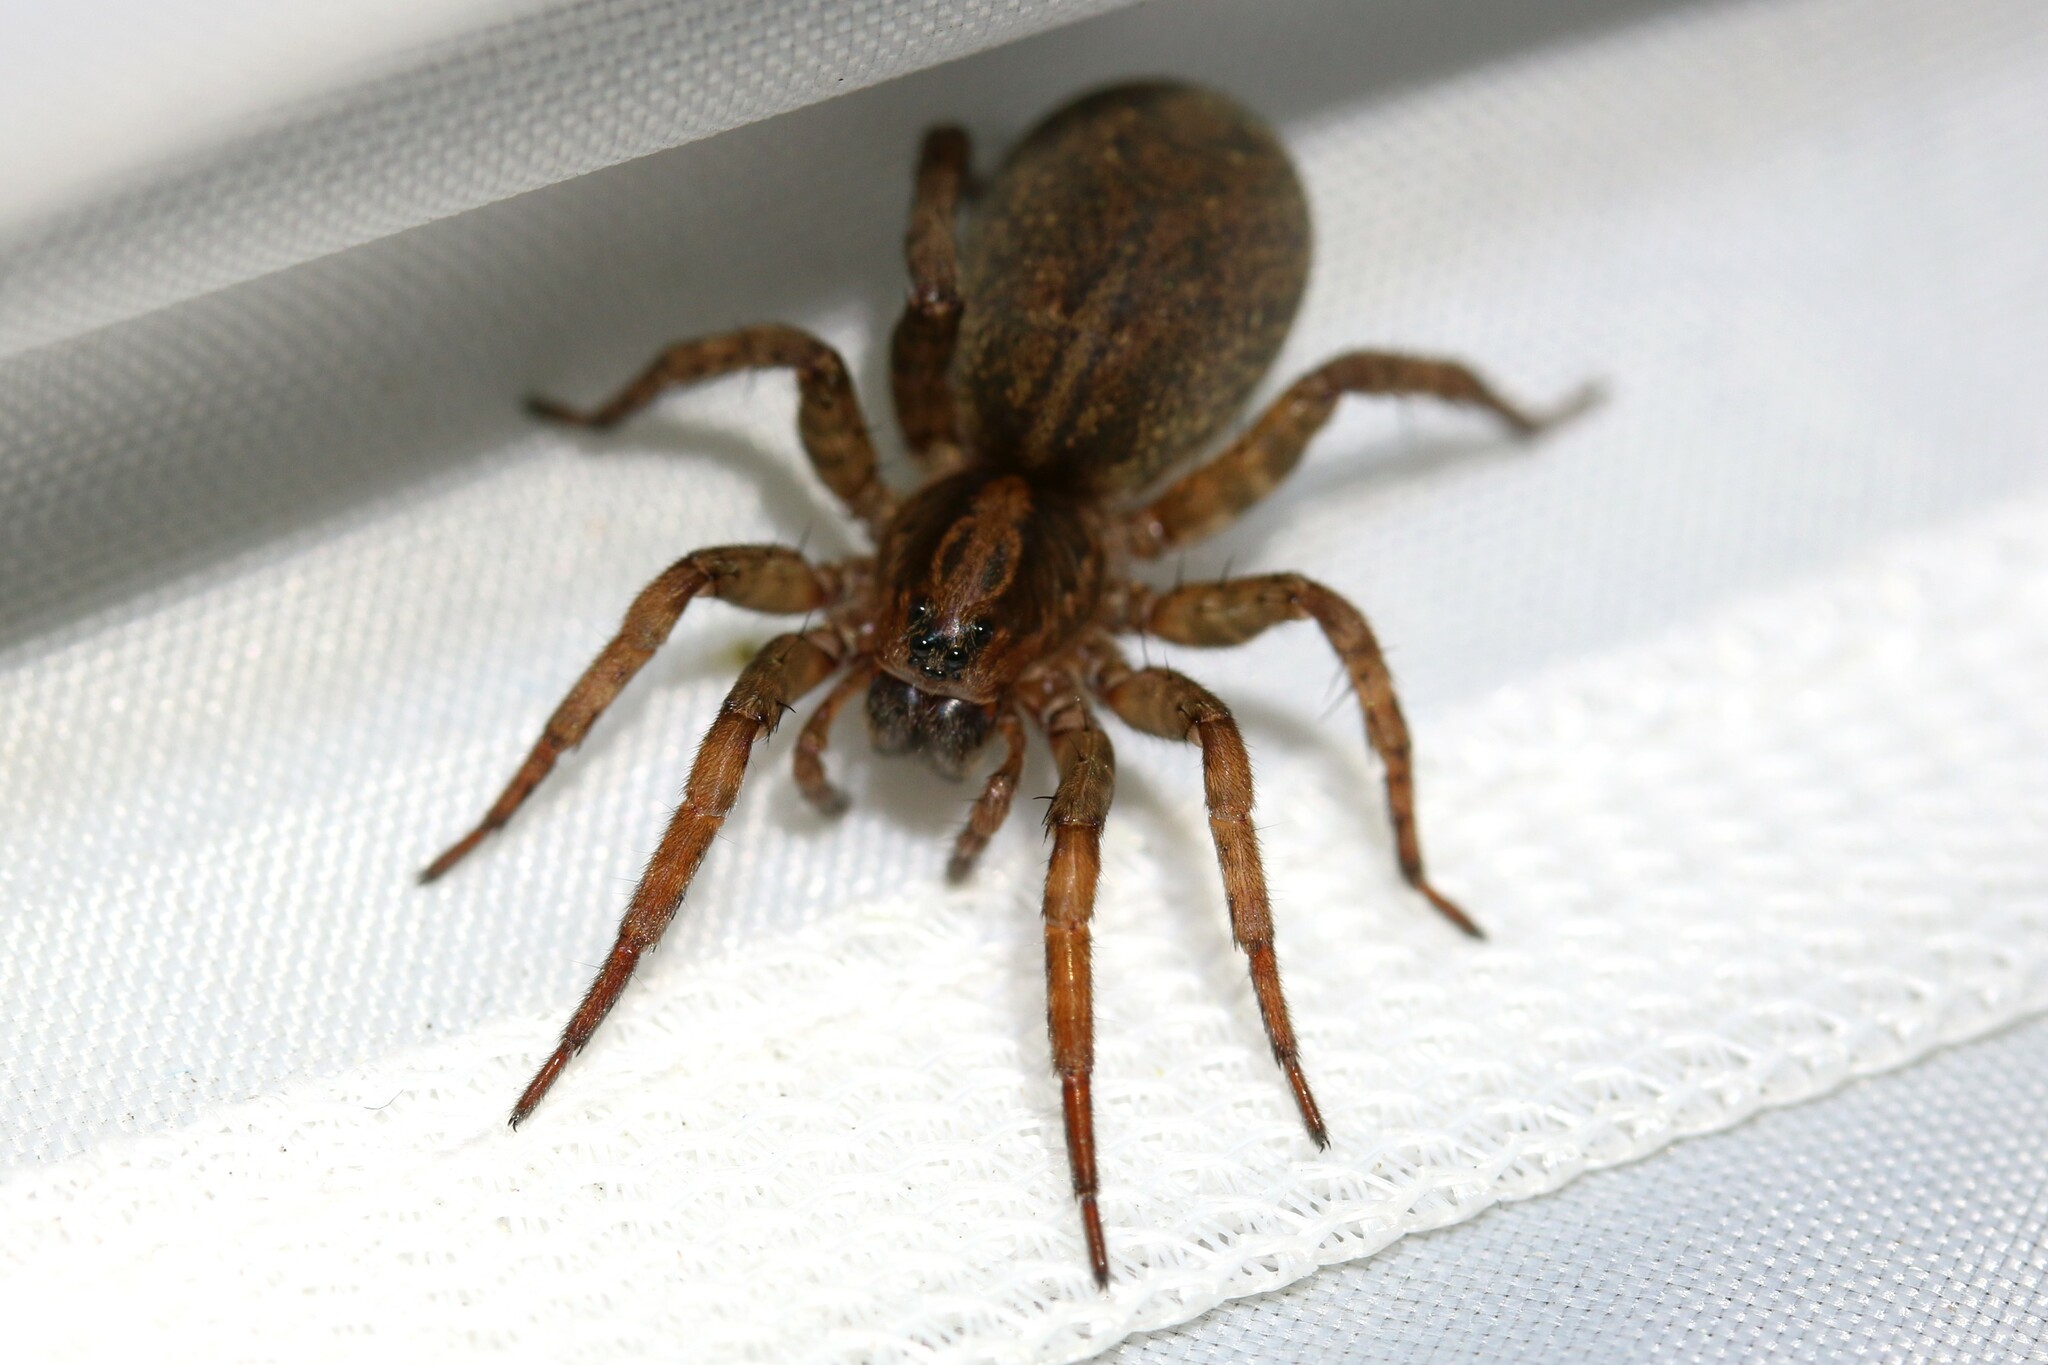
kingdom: Animalia
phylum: Arthropoda
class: Arachnida
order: Araneae
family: Lycosidae
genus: Trochosa
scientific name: Trochosa
